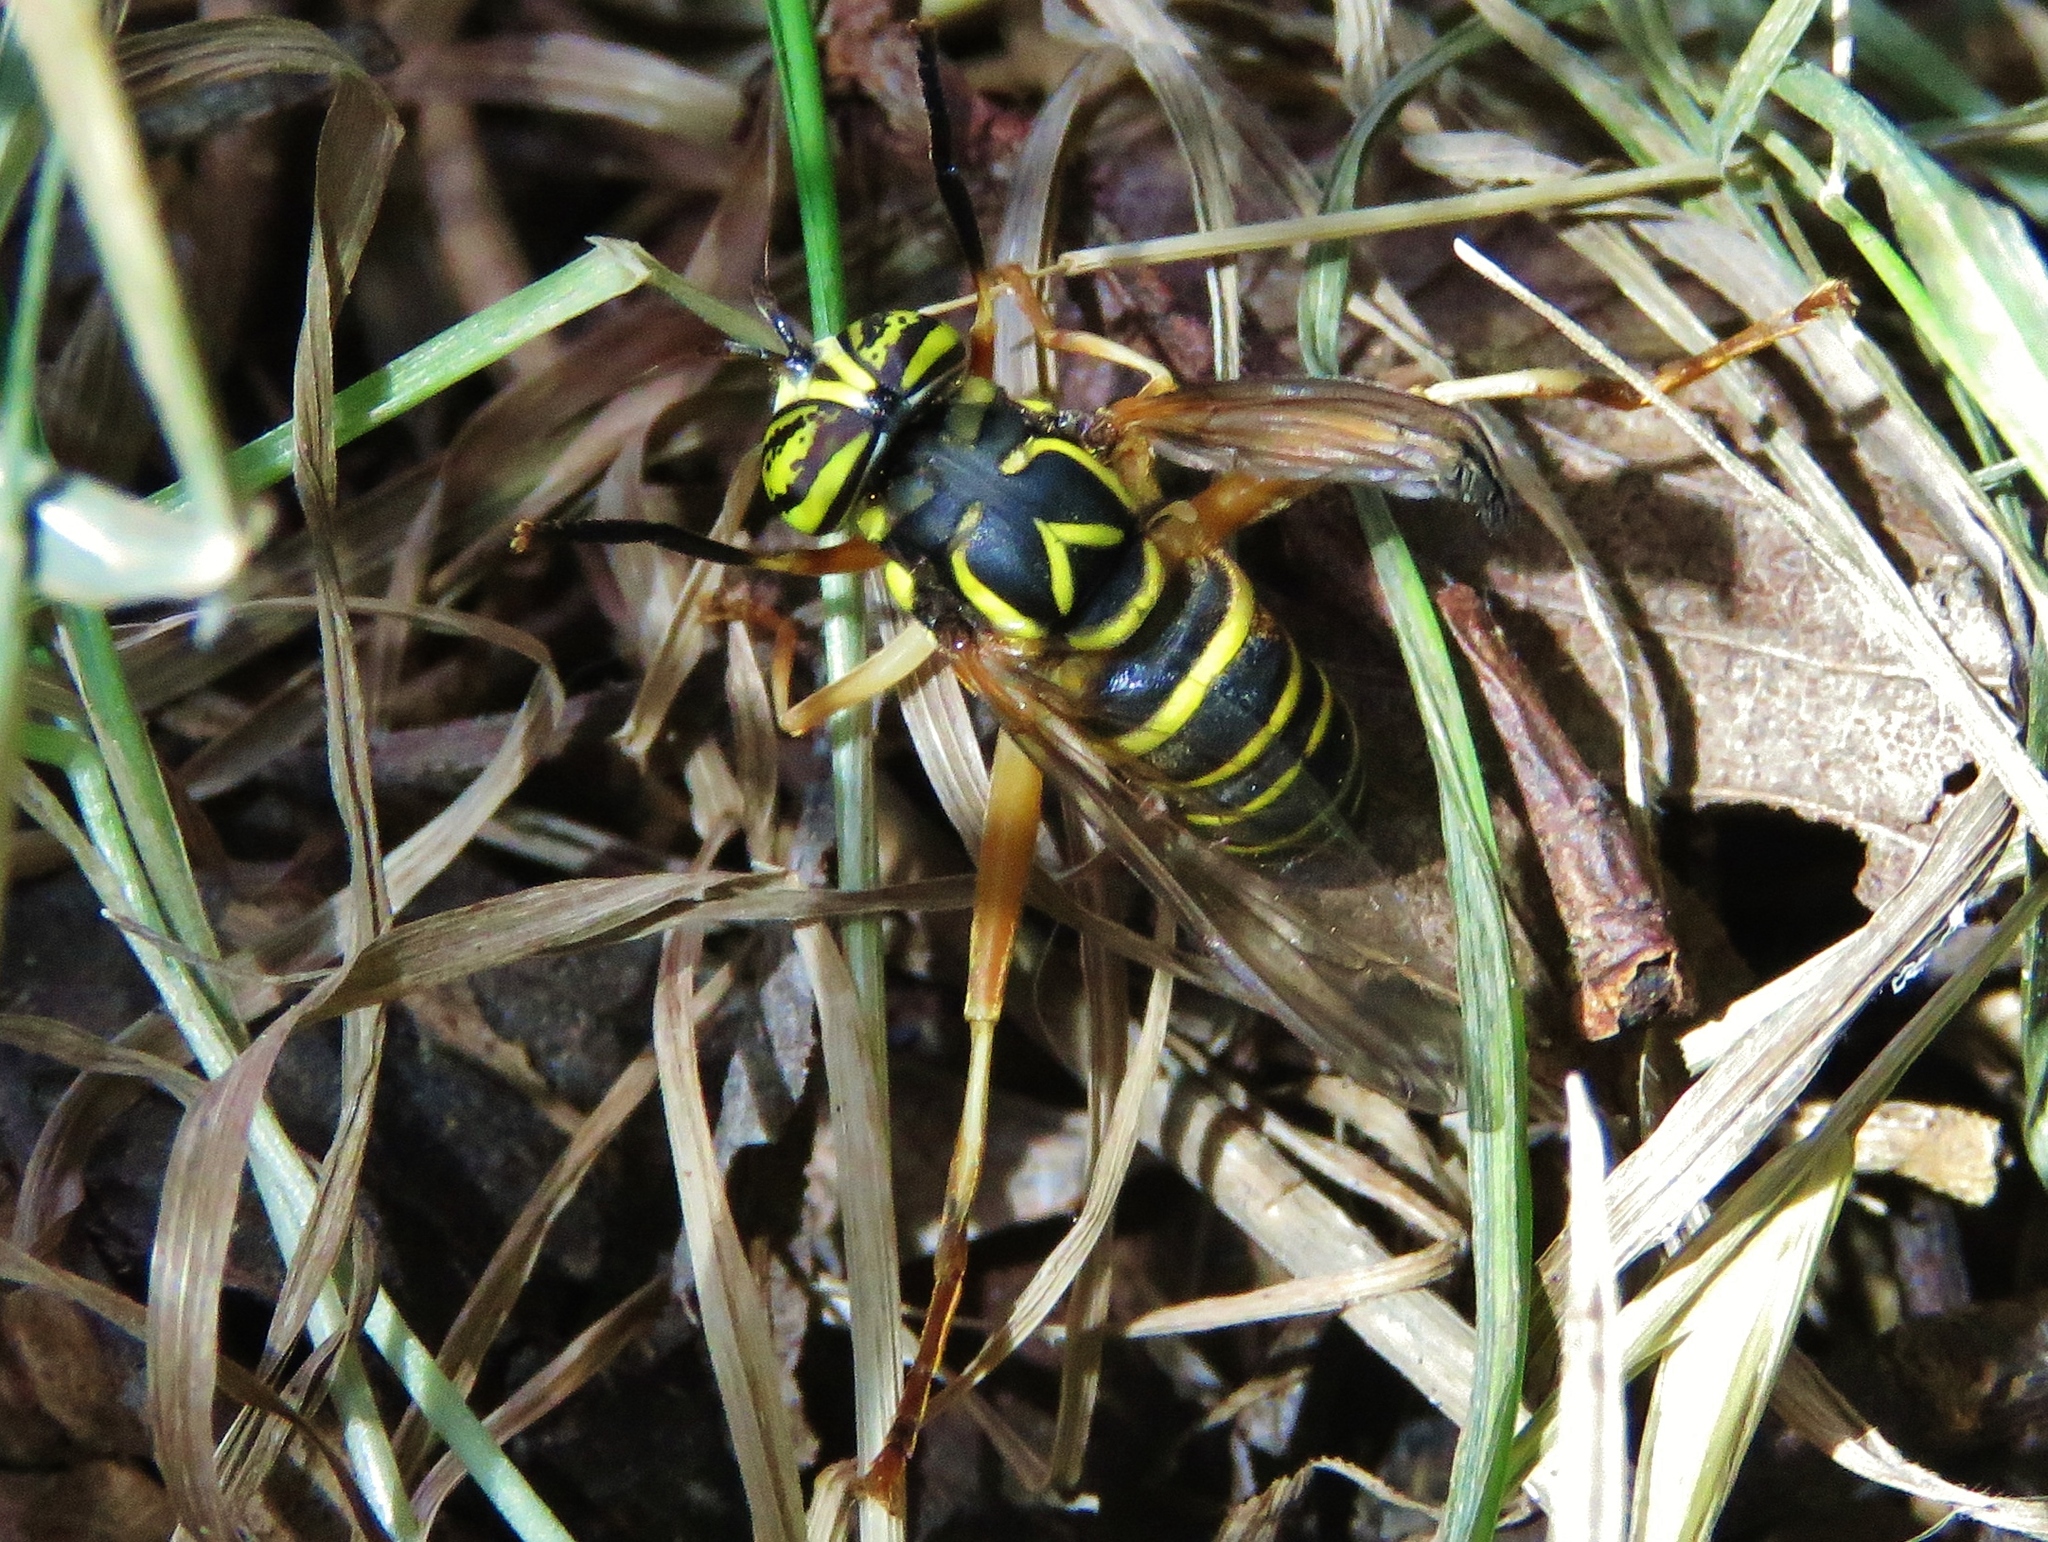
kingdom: Animalia
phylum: Arthropoda
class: Insecta
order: Diptera
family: Syrphidae
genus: Spilomyia
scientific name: Spilomyia longicornis
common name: Eastern hornet fly
